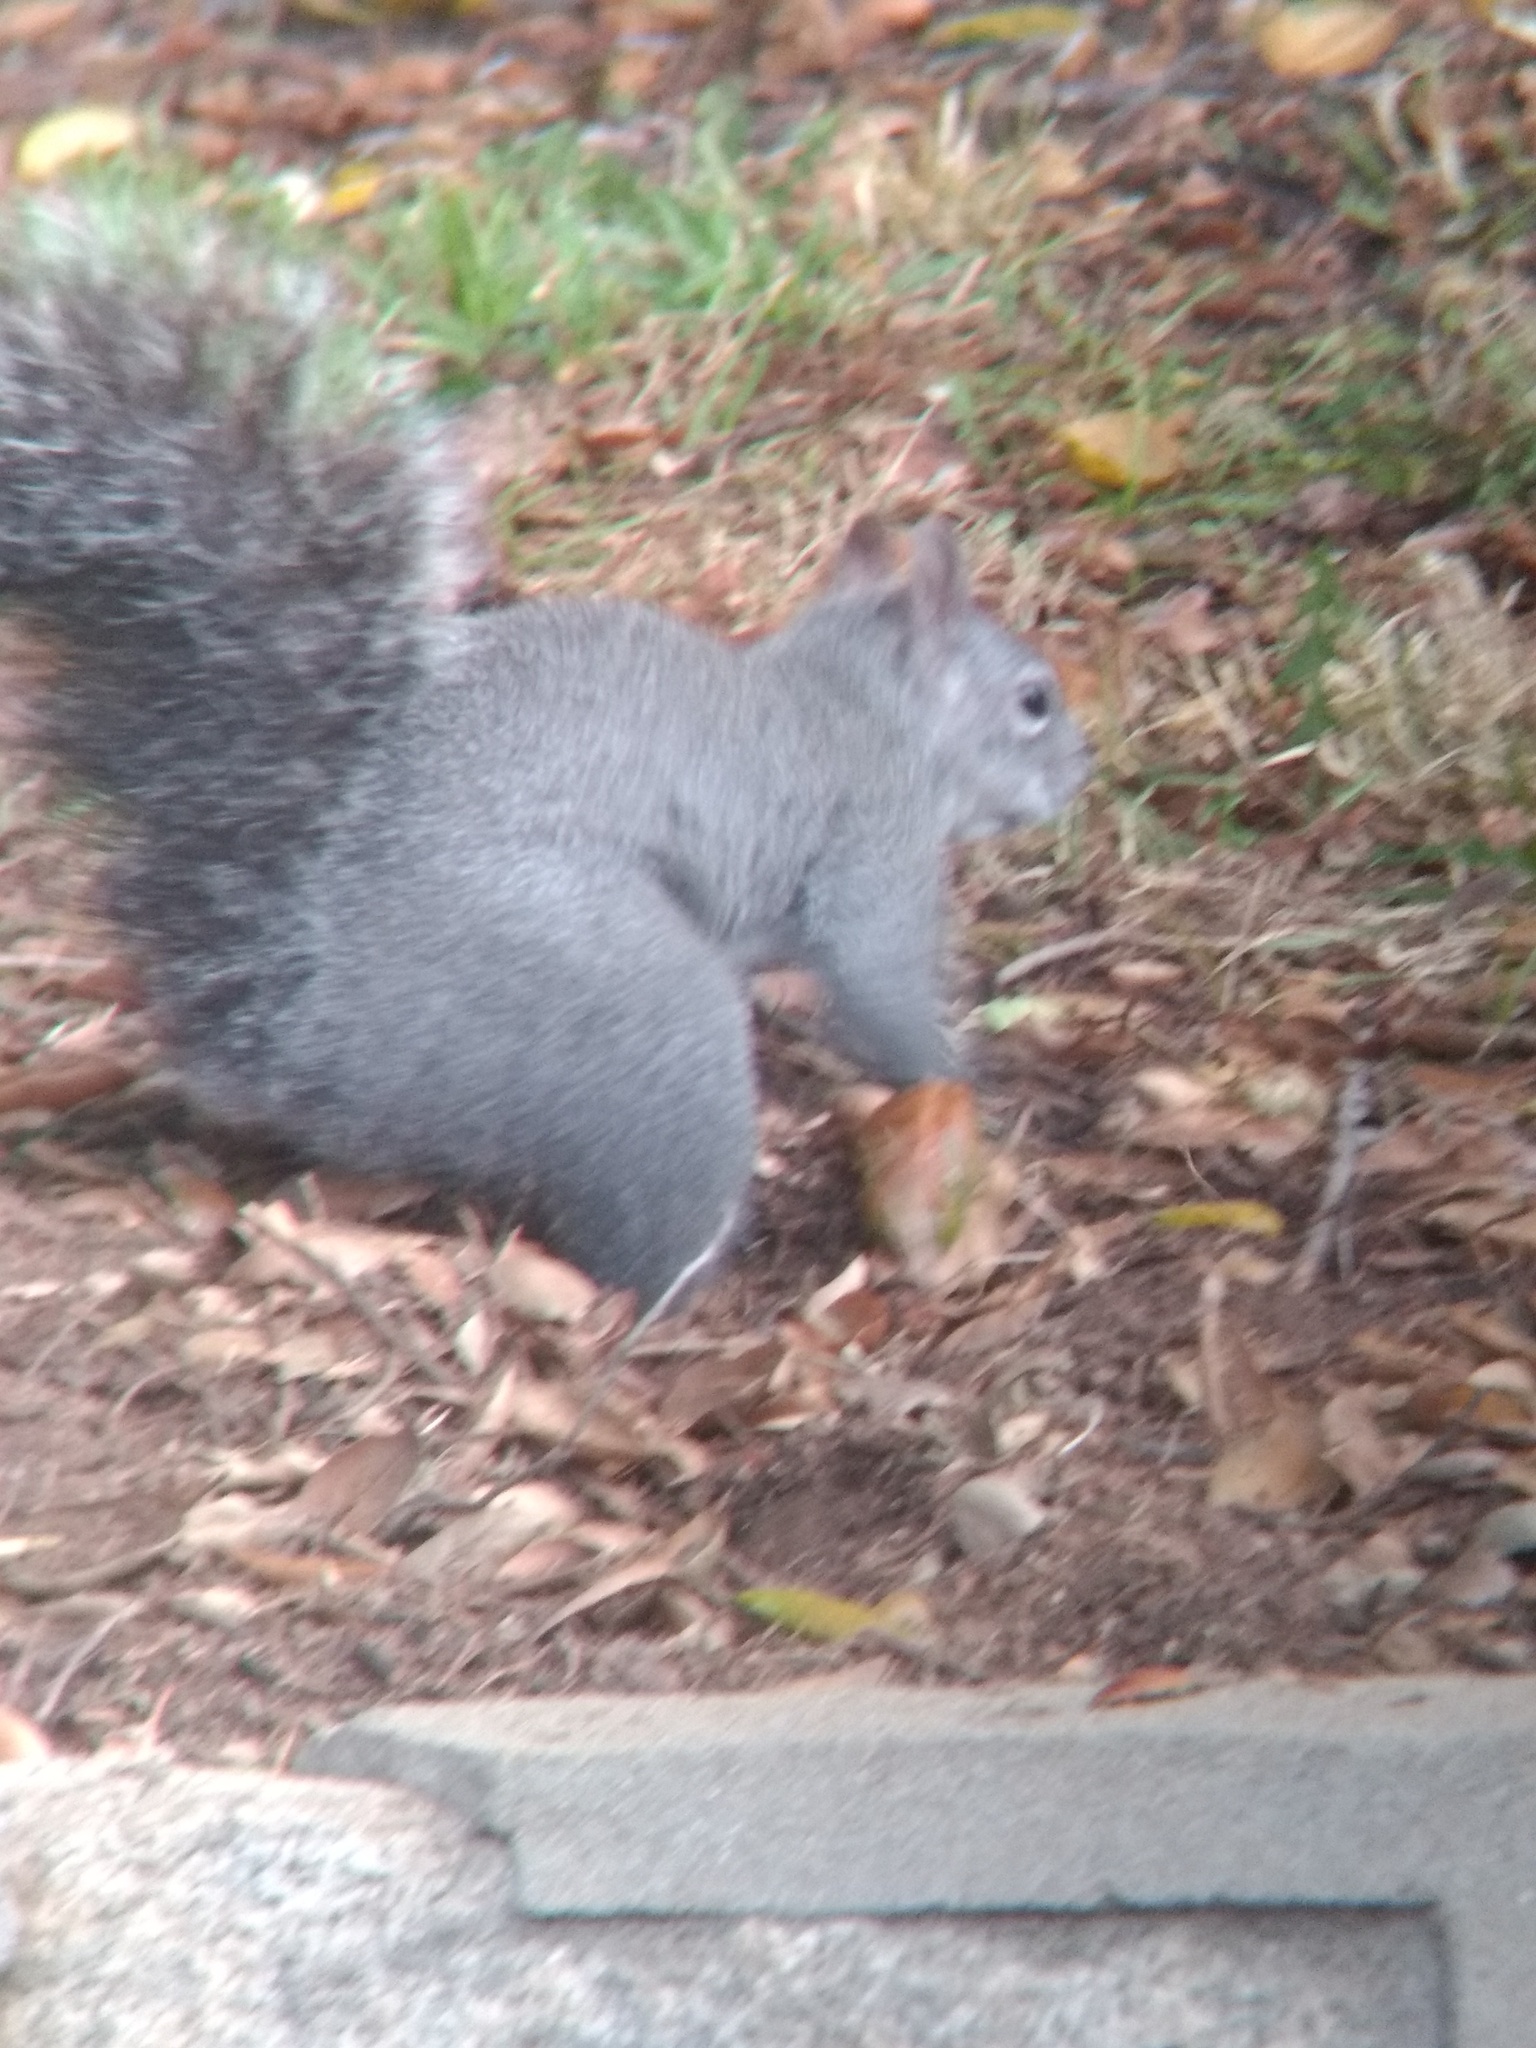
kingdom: Animalia
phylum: Chordata
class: Mammalia
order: Rodentia
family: Sciuridae
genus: Sciurus
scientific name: Sciurus griseus
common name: Western gray squirrel
